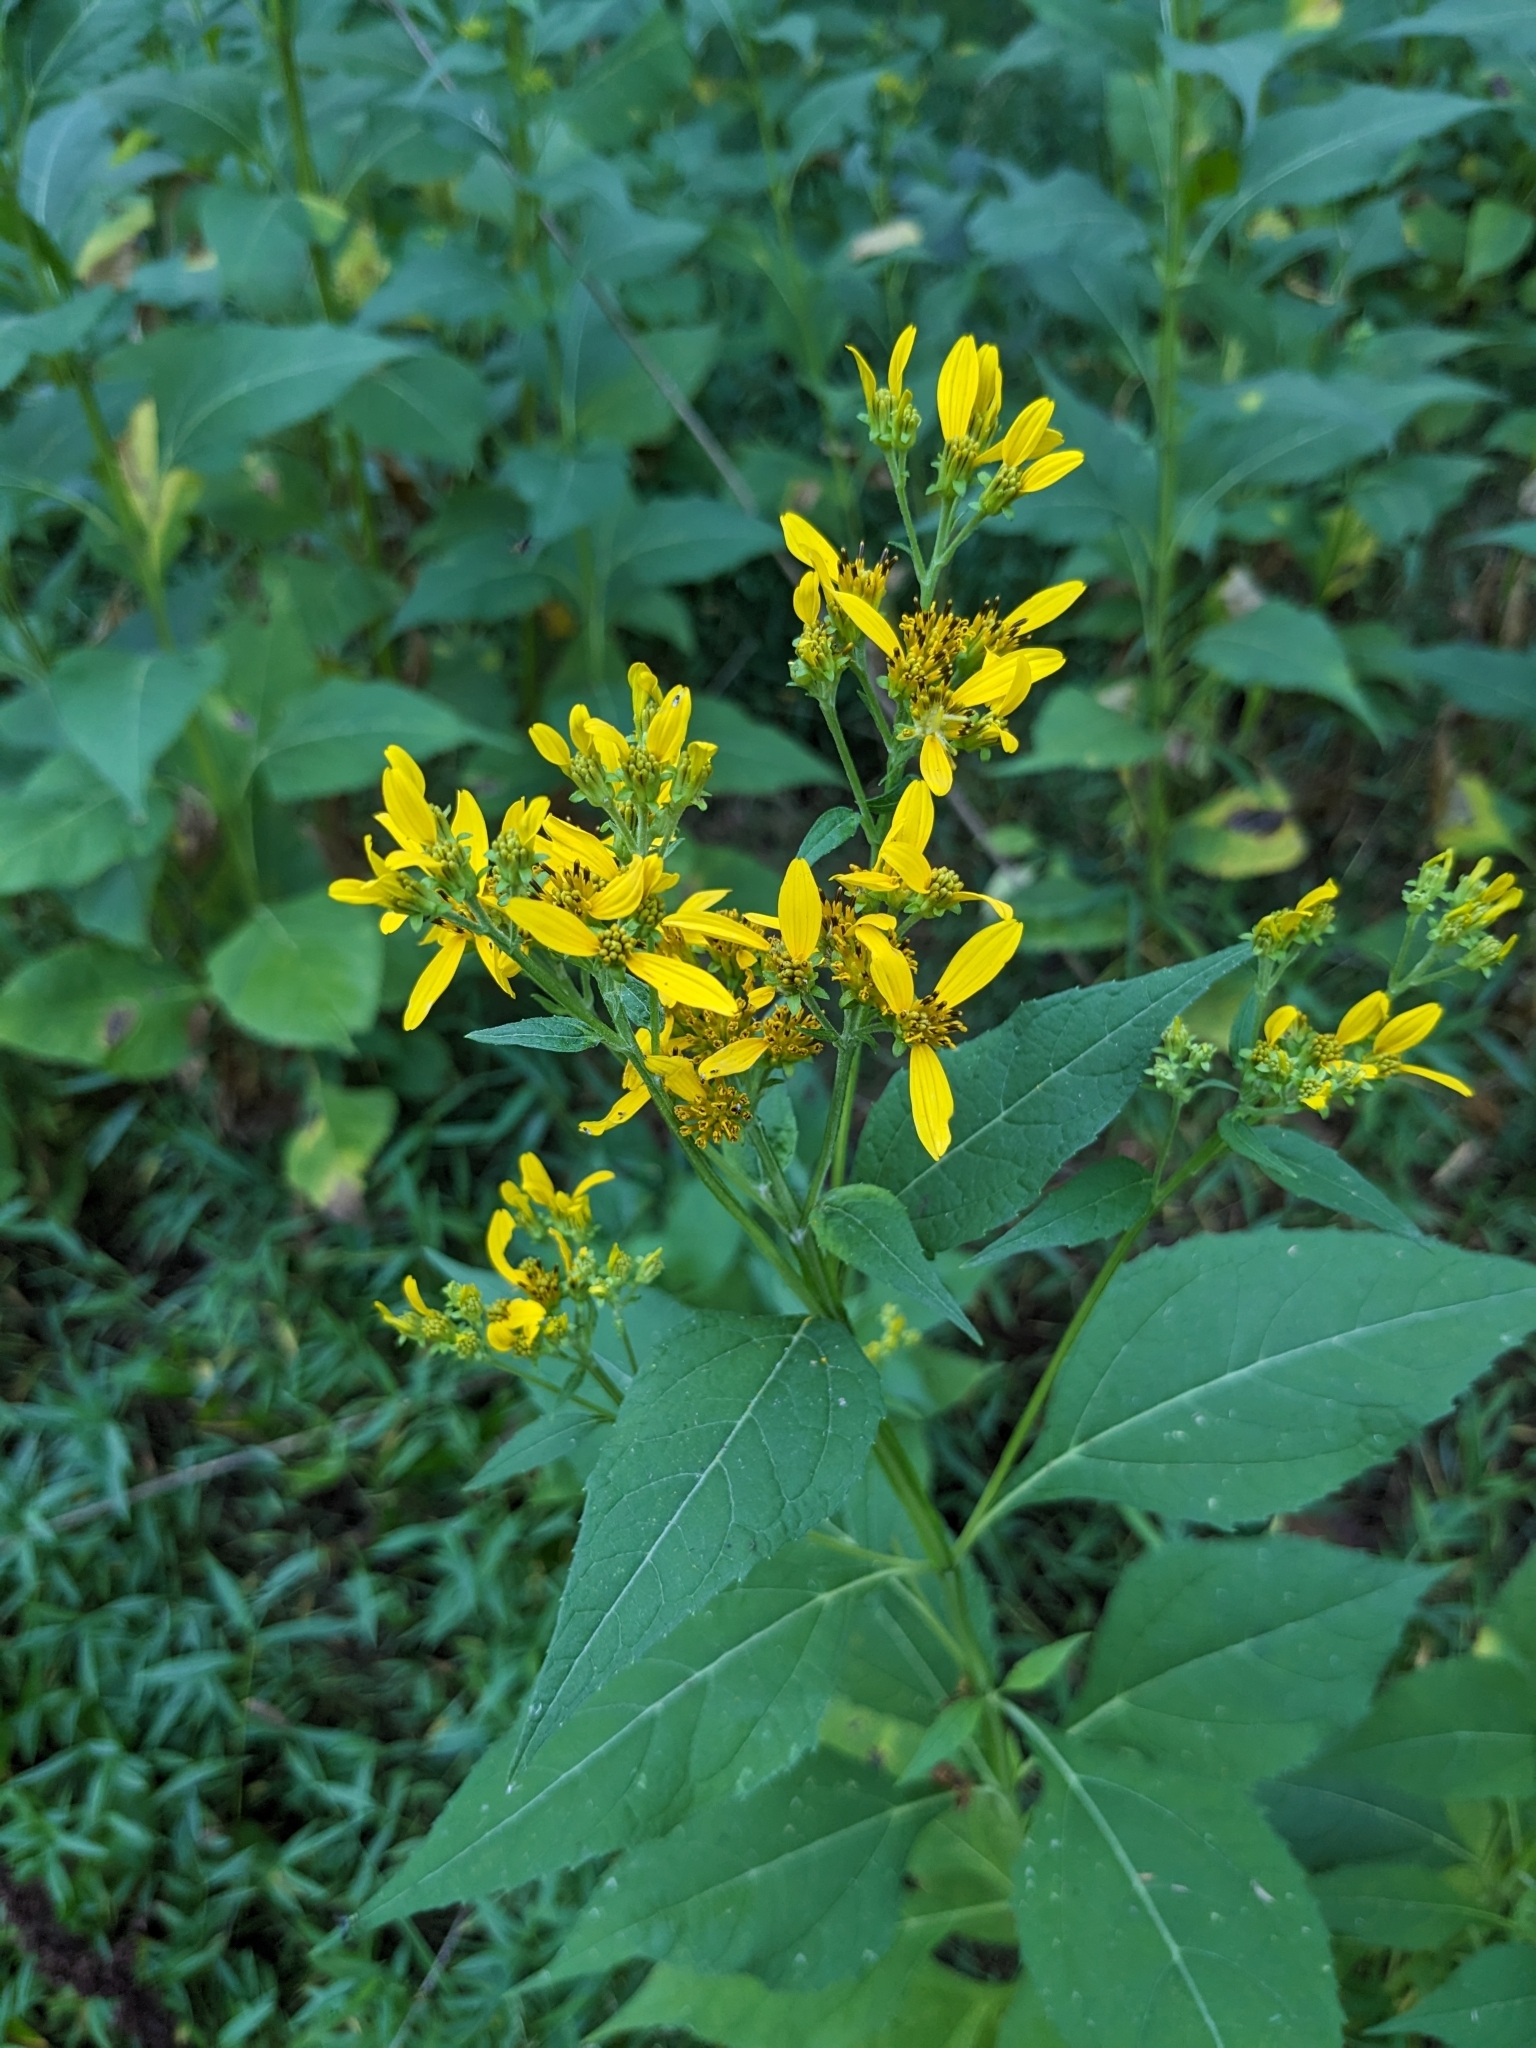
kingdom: Plantae
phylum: Tracheophyta
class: Magnoliopsida
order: Asterales
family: Asteraceae
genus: Verbesina
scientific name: Verbesina occidentalis
